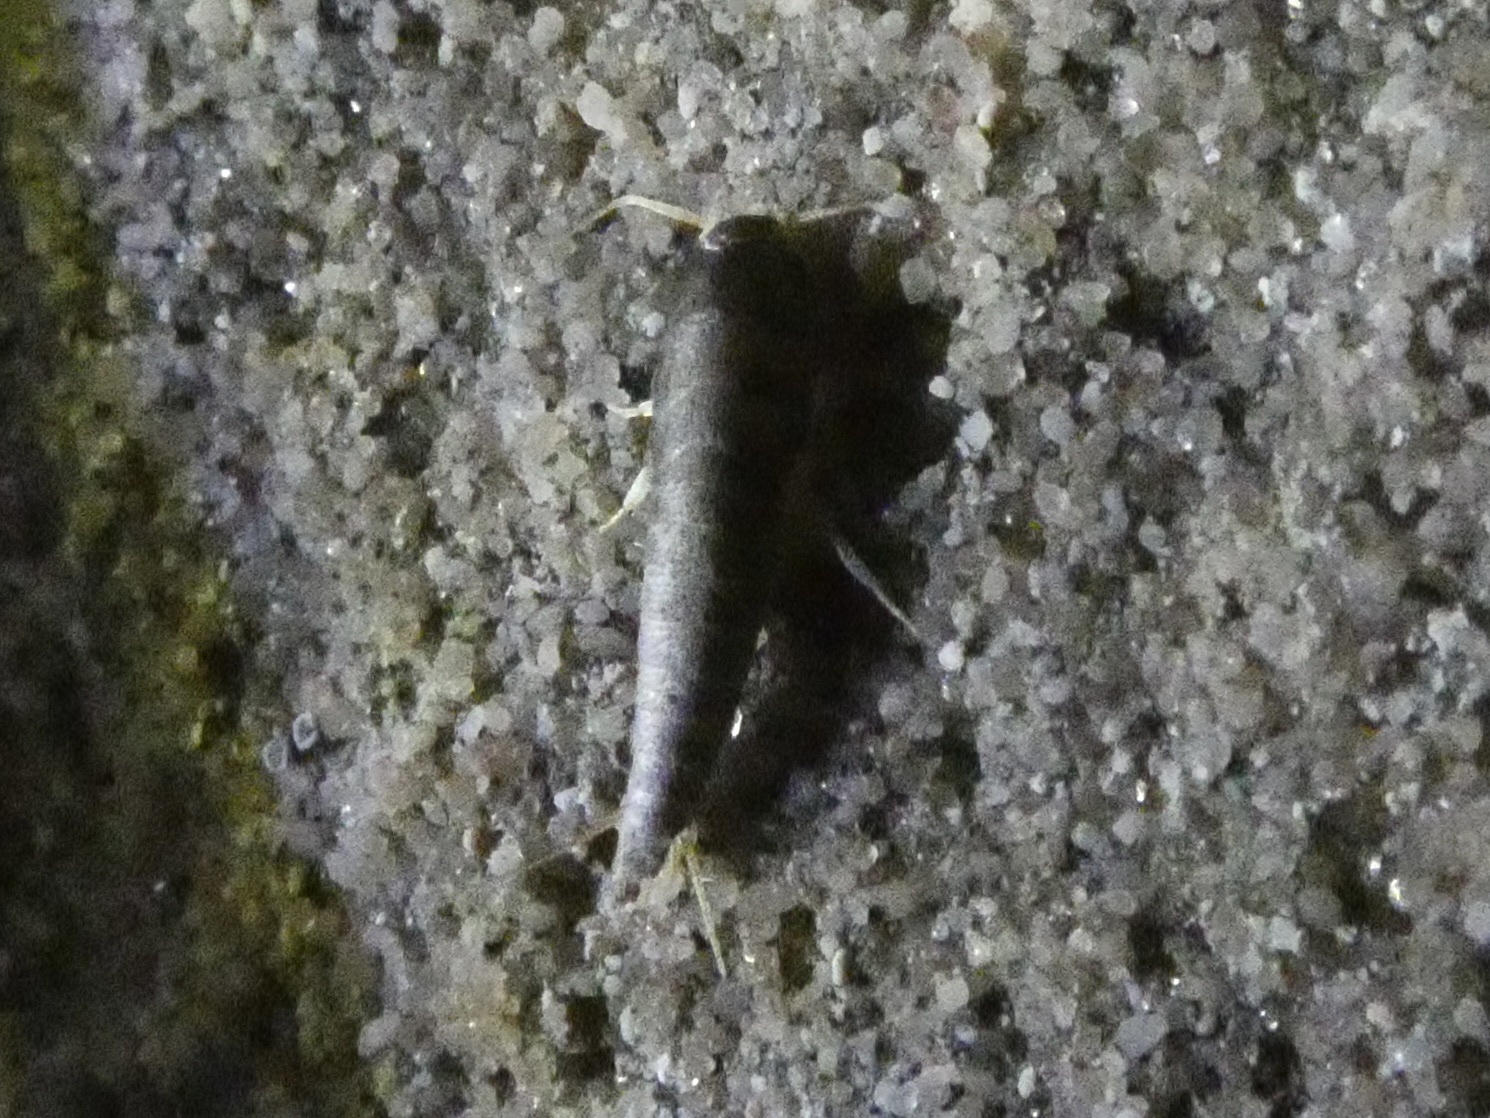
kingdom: Animalia
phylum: Arthropoda
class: Insecta
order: Zygentoma
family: Lepismatidae
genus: Lepisma
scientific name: Lepisma saccharinum
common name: Silverfish
